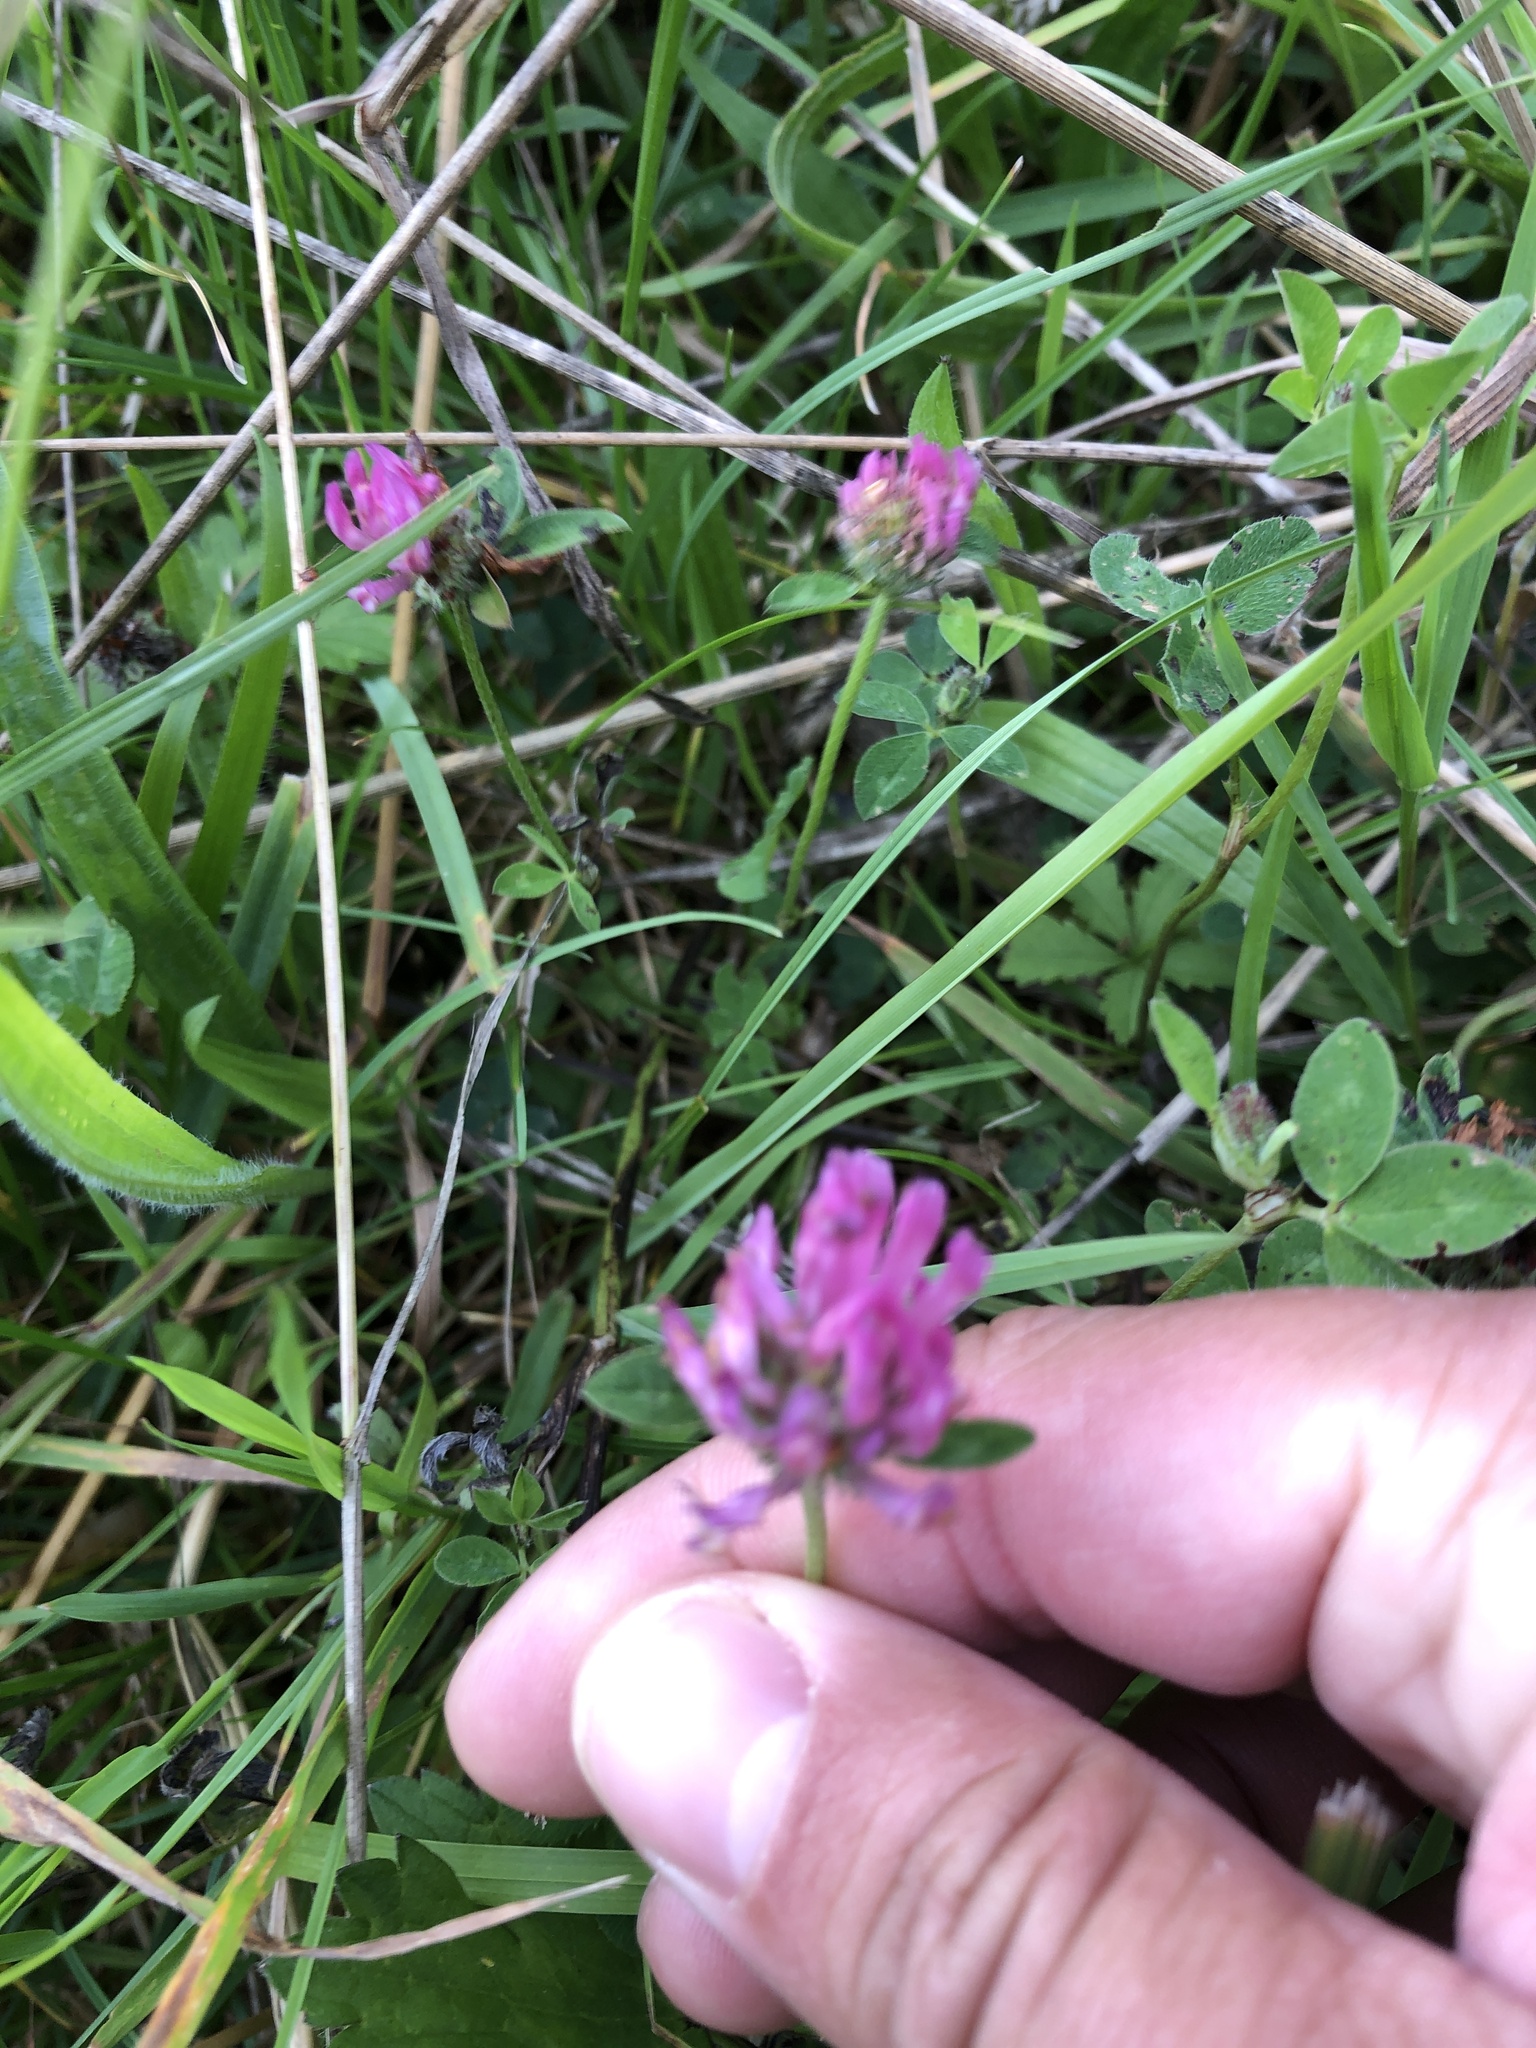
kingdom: Plantae
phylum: Tracheophyta
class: Magnoliopsida
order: Fabales
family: Fabaceae
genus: Trifolium
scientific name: Trifolium pratense
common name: Red clover
